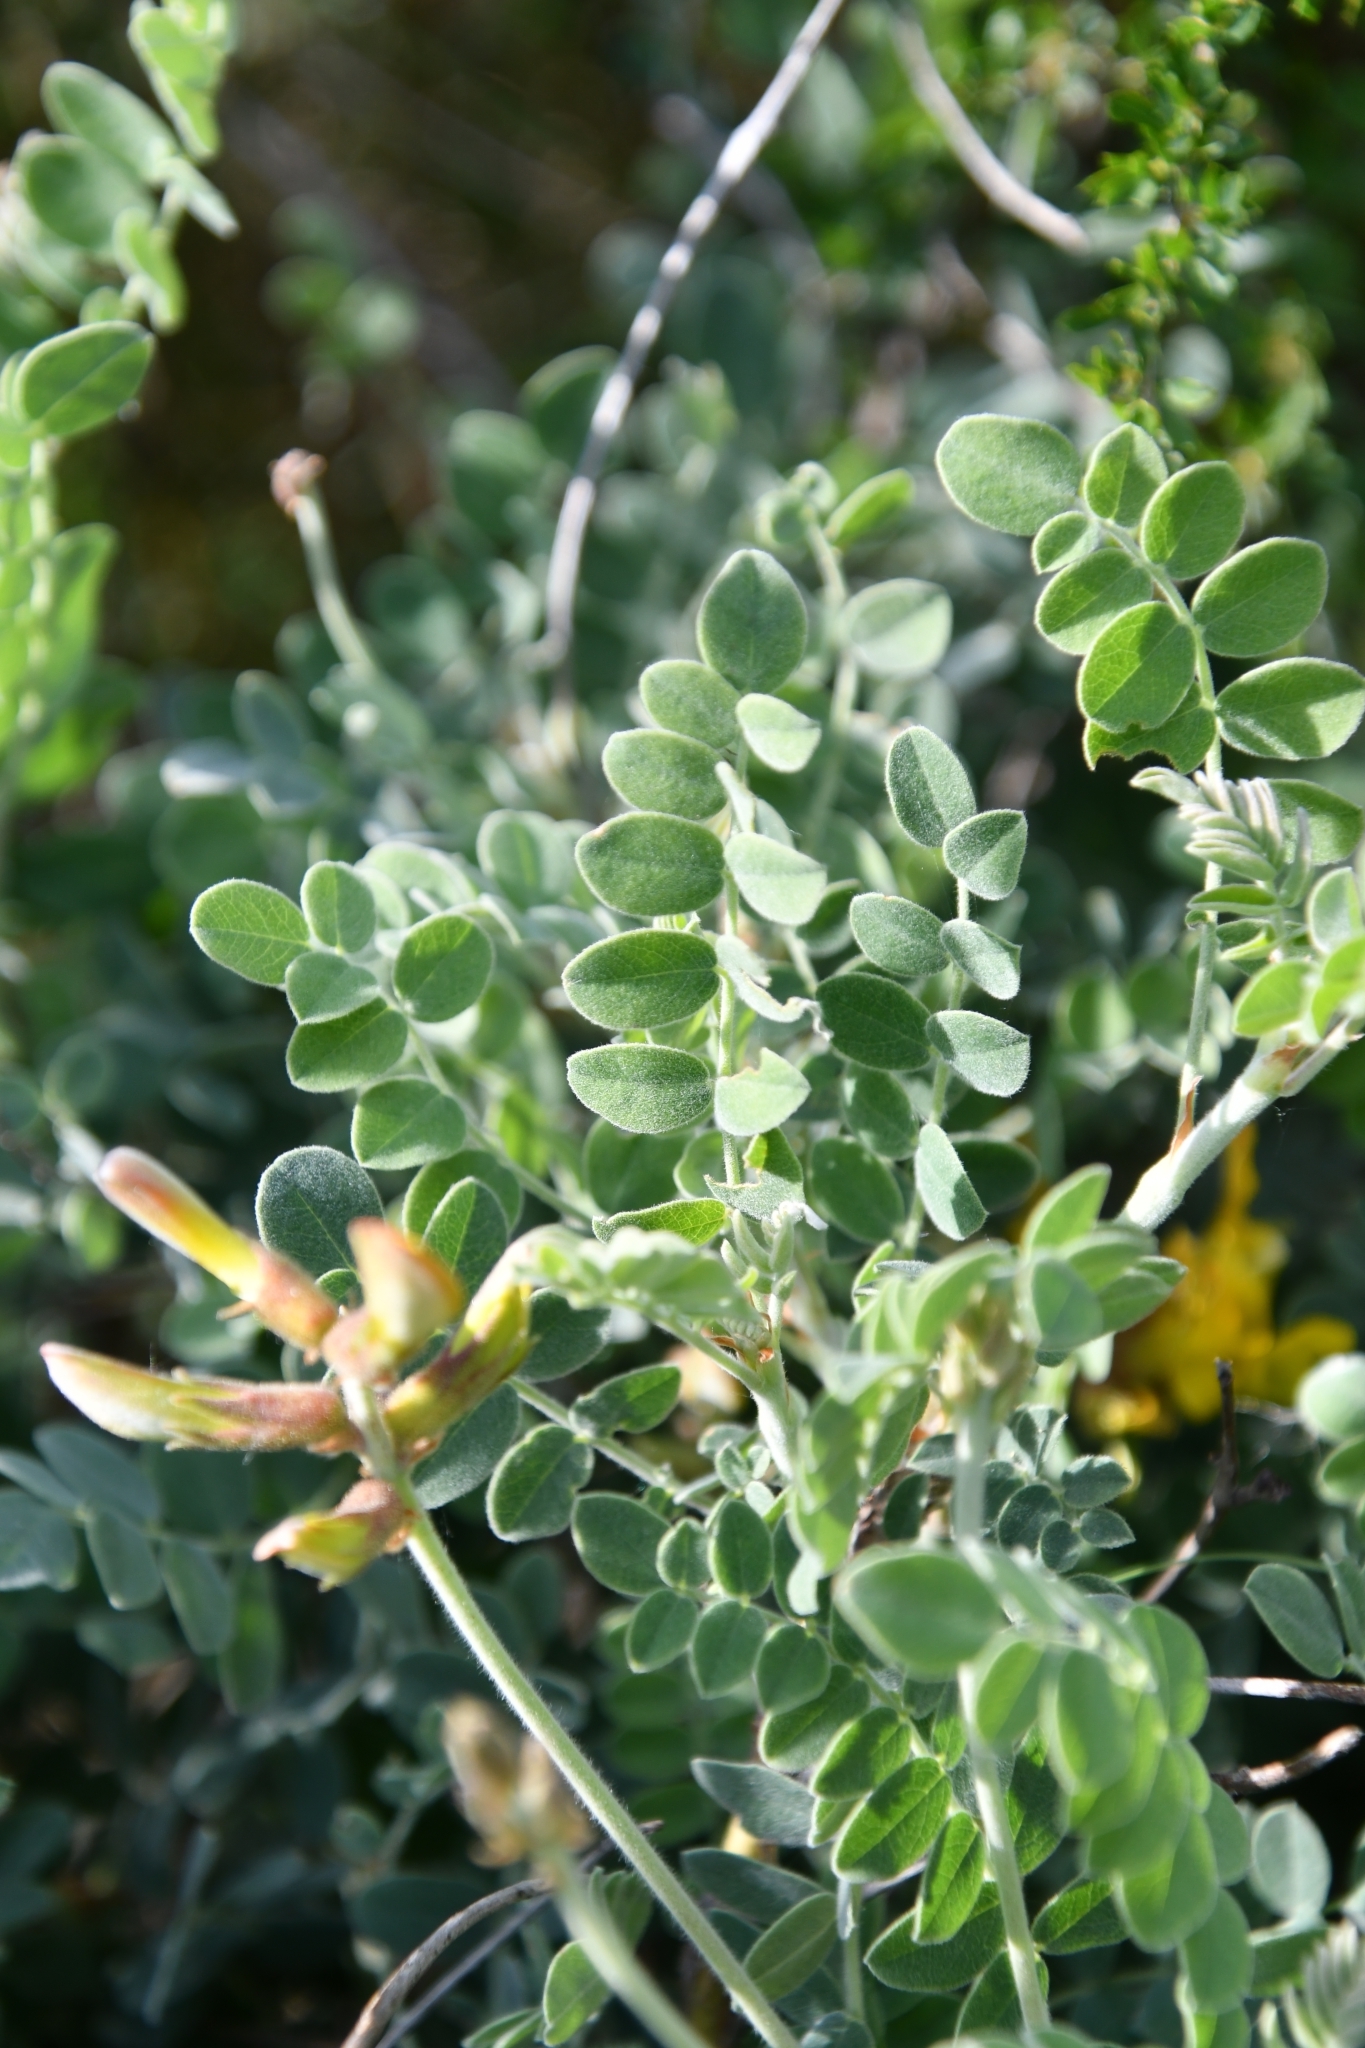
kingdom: Plantae
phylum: Tracheophyta
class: Magnoliopsida
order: Fabales
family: Fabaceae
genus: Calophaca
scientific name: Calophaca wolgarica
